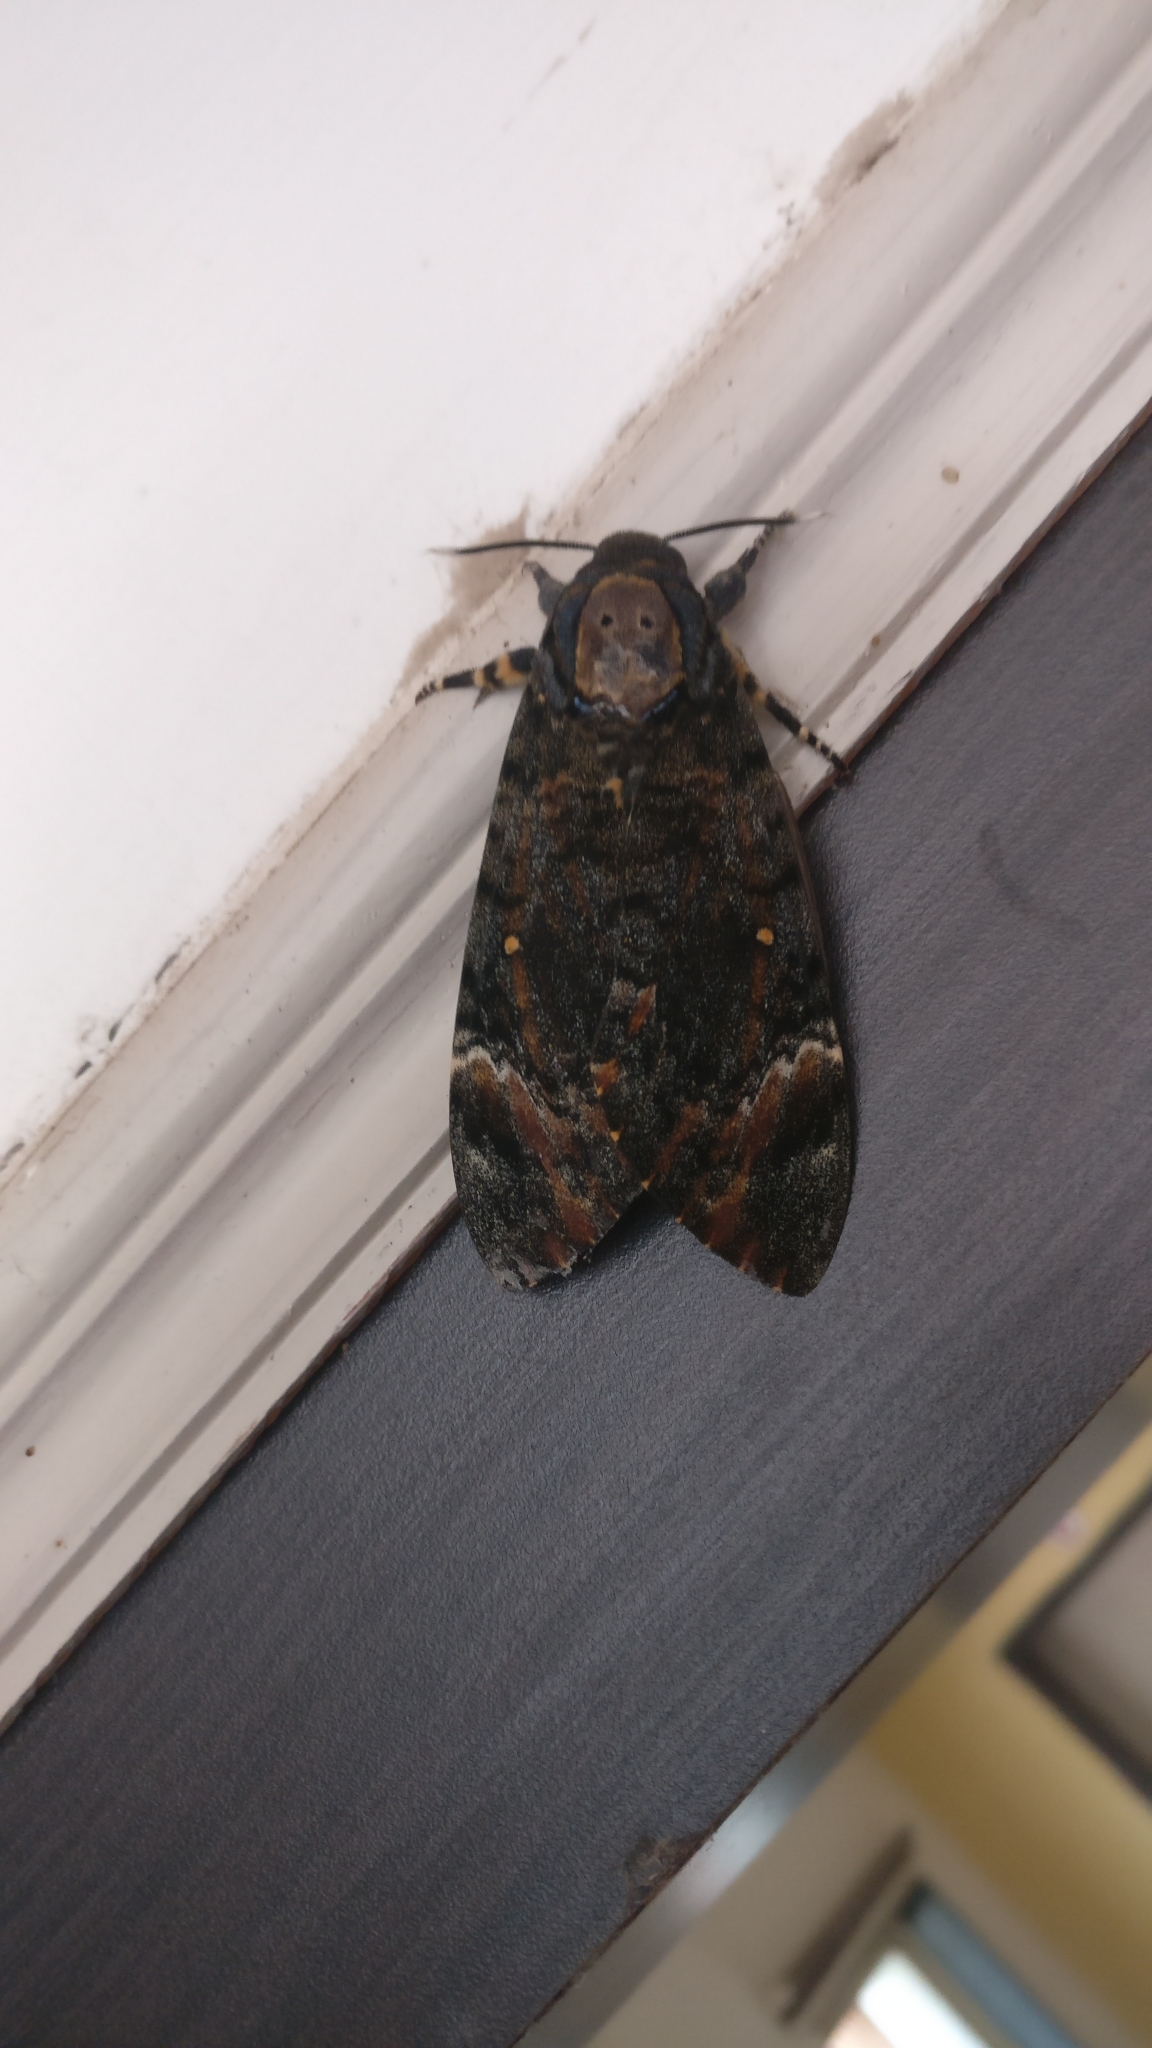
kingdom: Animalia
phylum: Arthropoda
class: Insecta
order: Lepidoptera
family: Sphingidae
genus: Acherontia
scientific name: Acherontia styx
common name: Death's-head hawk moth
